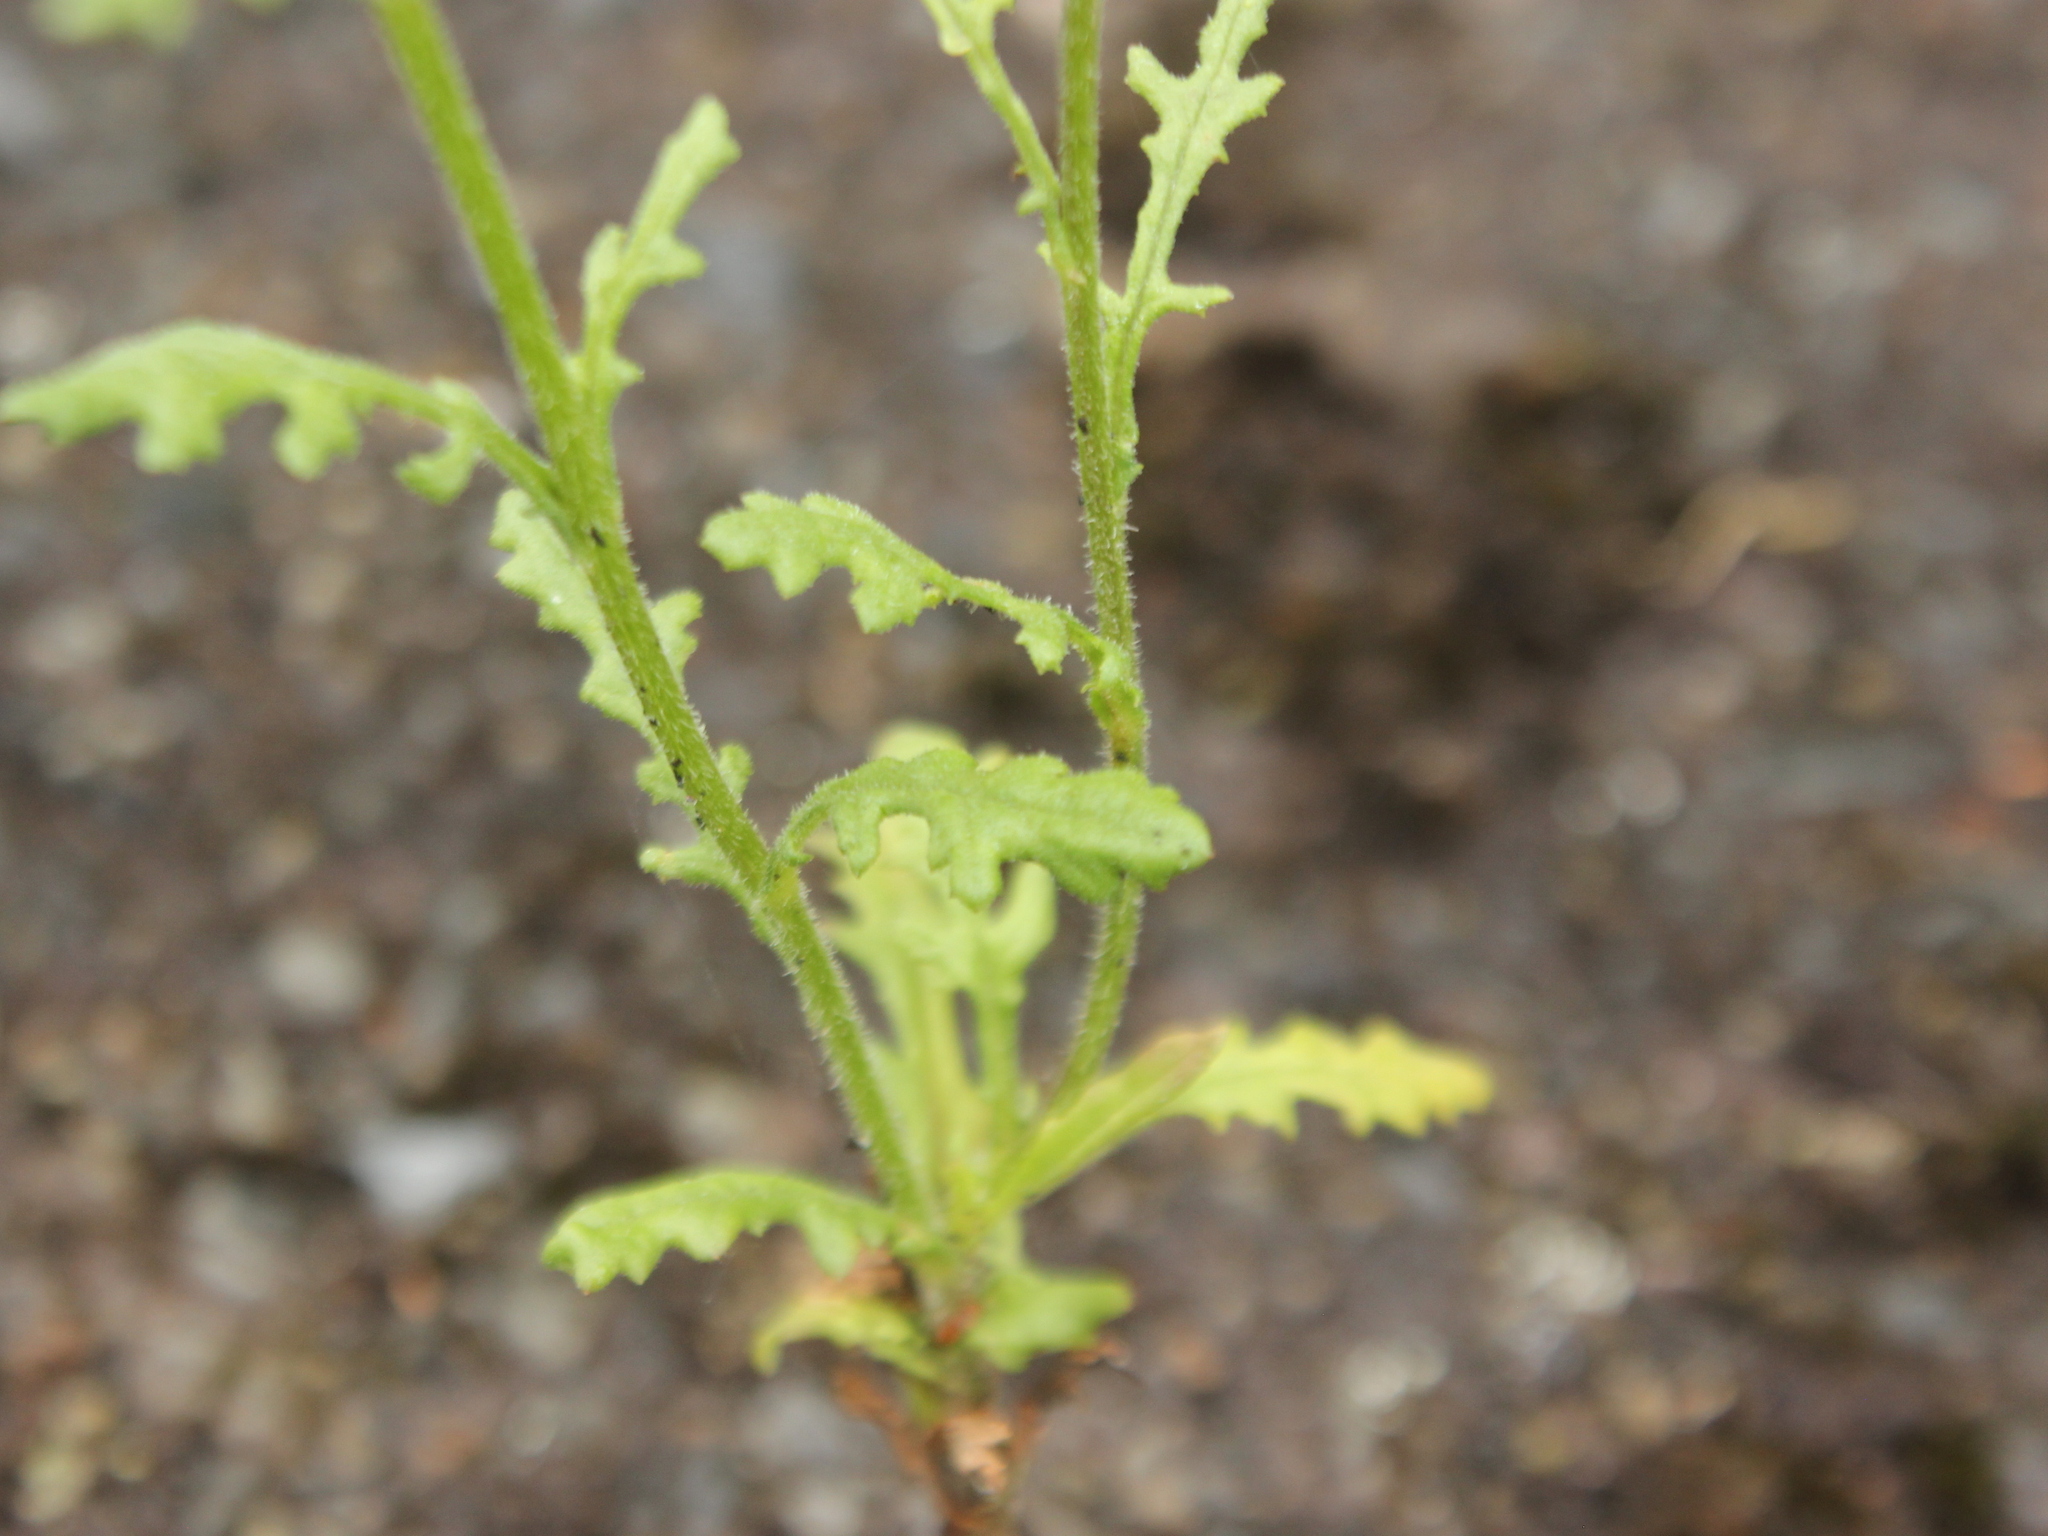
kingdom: Plantae
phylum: Tracheophyta
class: Magnoliopsida
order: Asterales
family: Asteraceae
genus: Senecio
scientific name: Senecio sylvaticus
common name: Woodland ragwort
